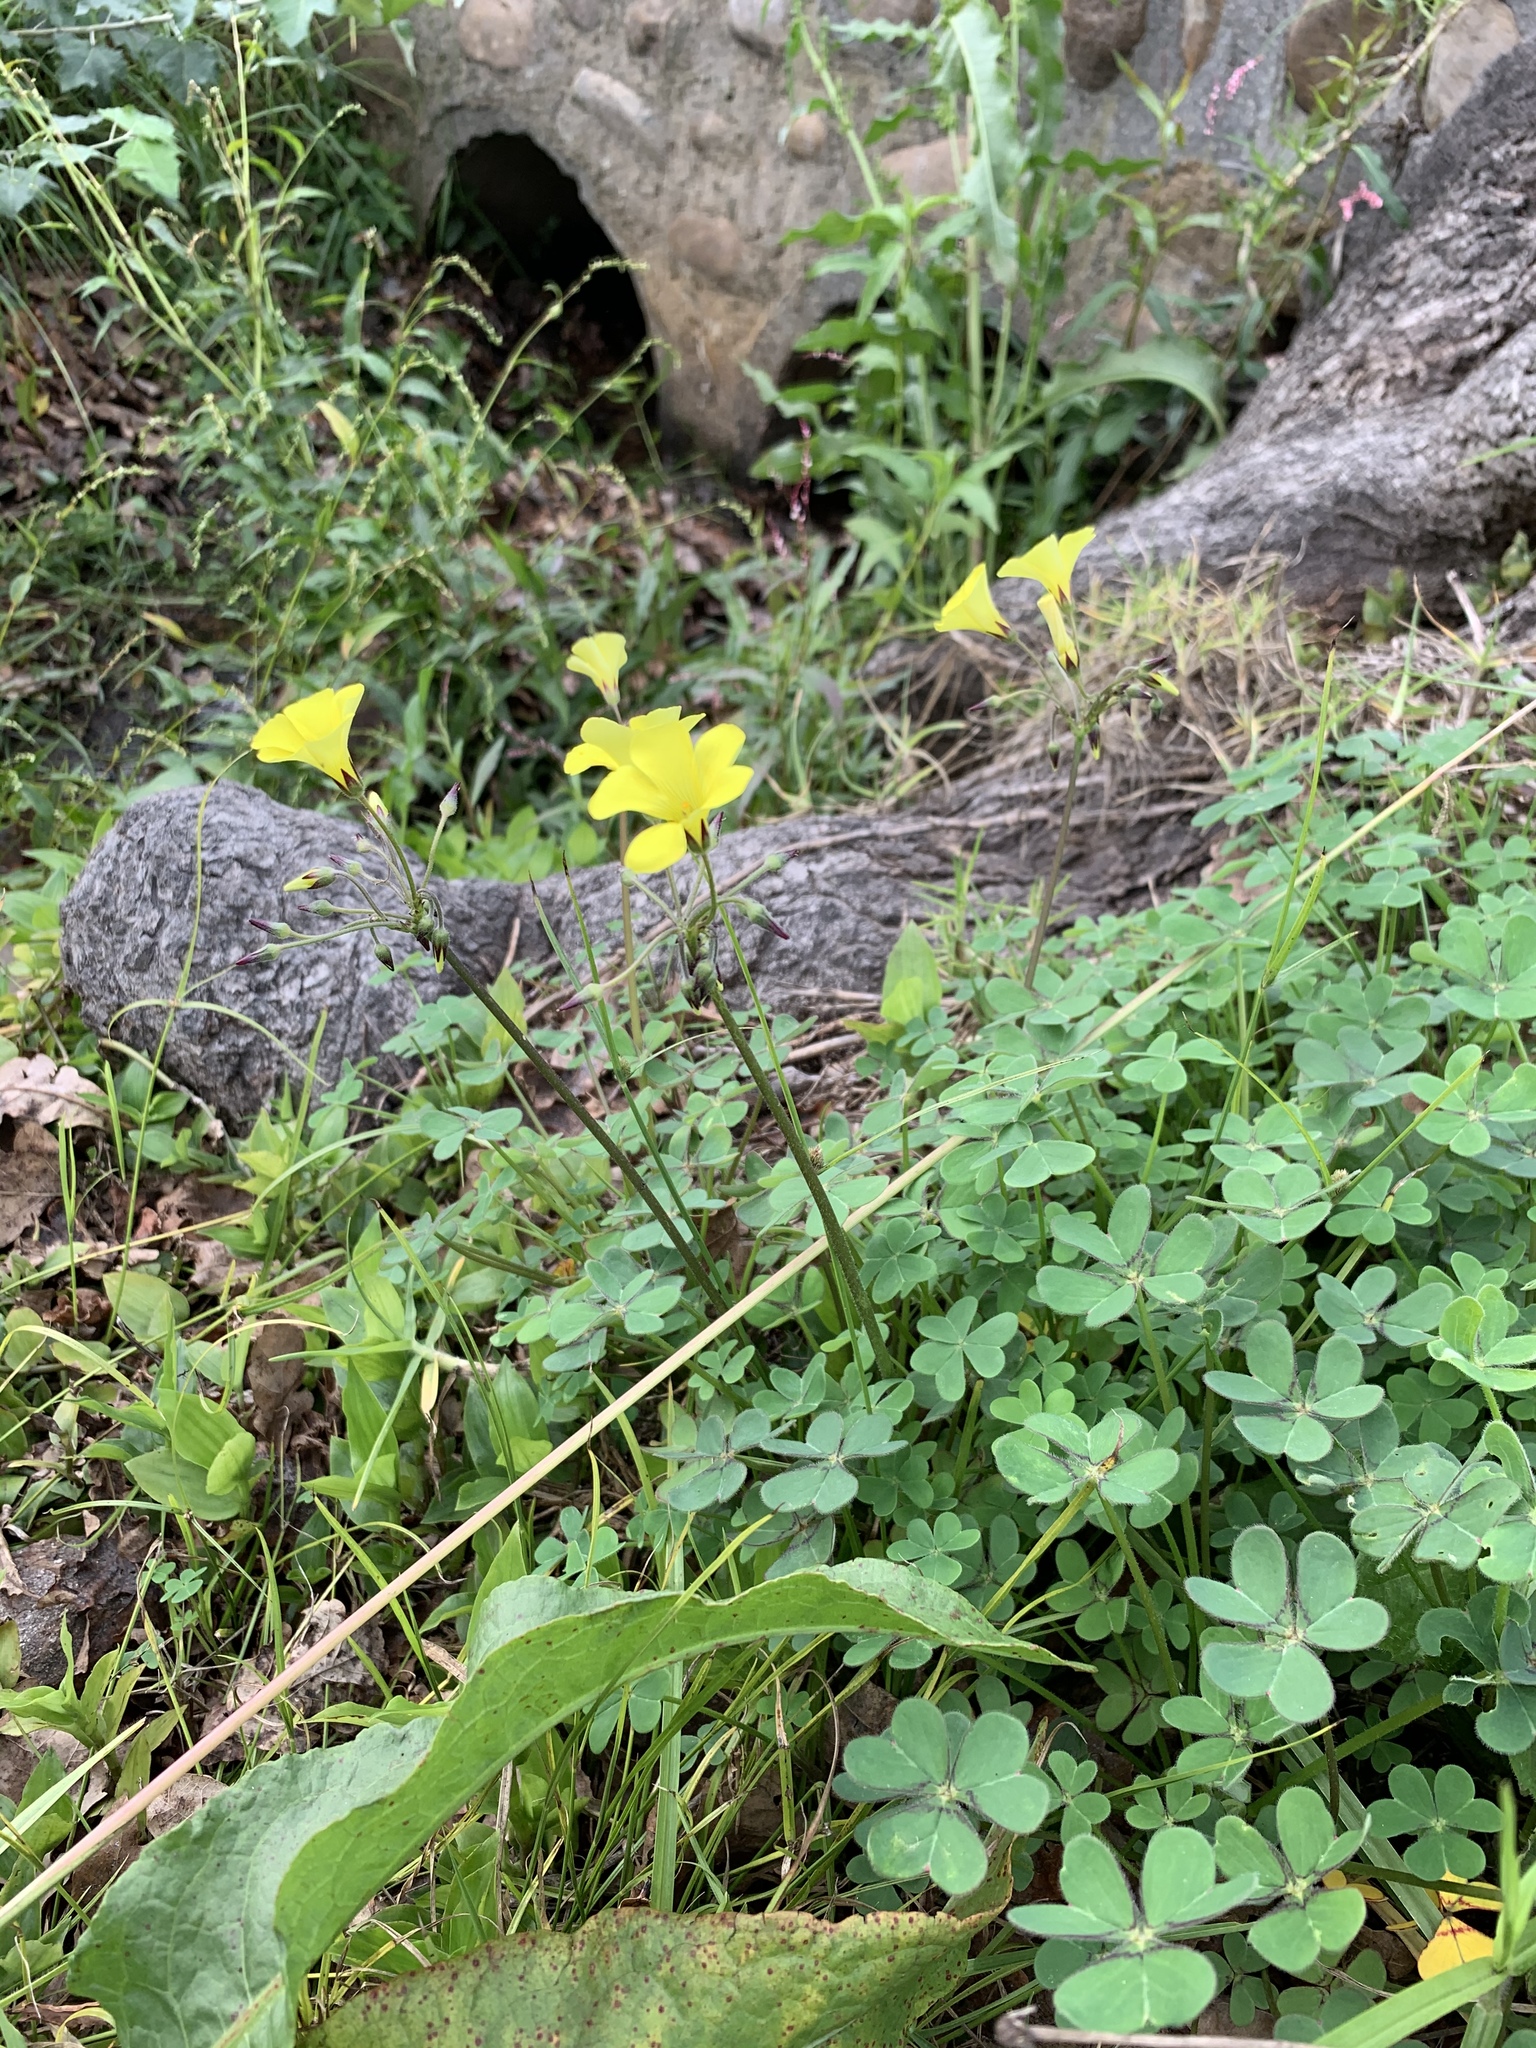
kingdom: Plantae
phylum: Tracheophyta
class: Magnoliopsida
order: Oxalidales
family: Oxalidaceae
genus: Oxalis
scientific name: Oxalis pes-caprae
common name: Bermuda-buttercup
